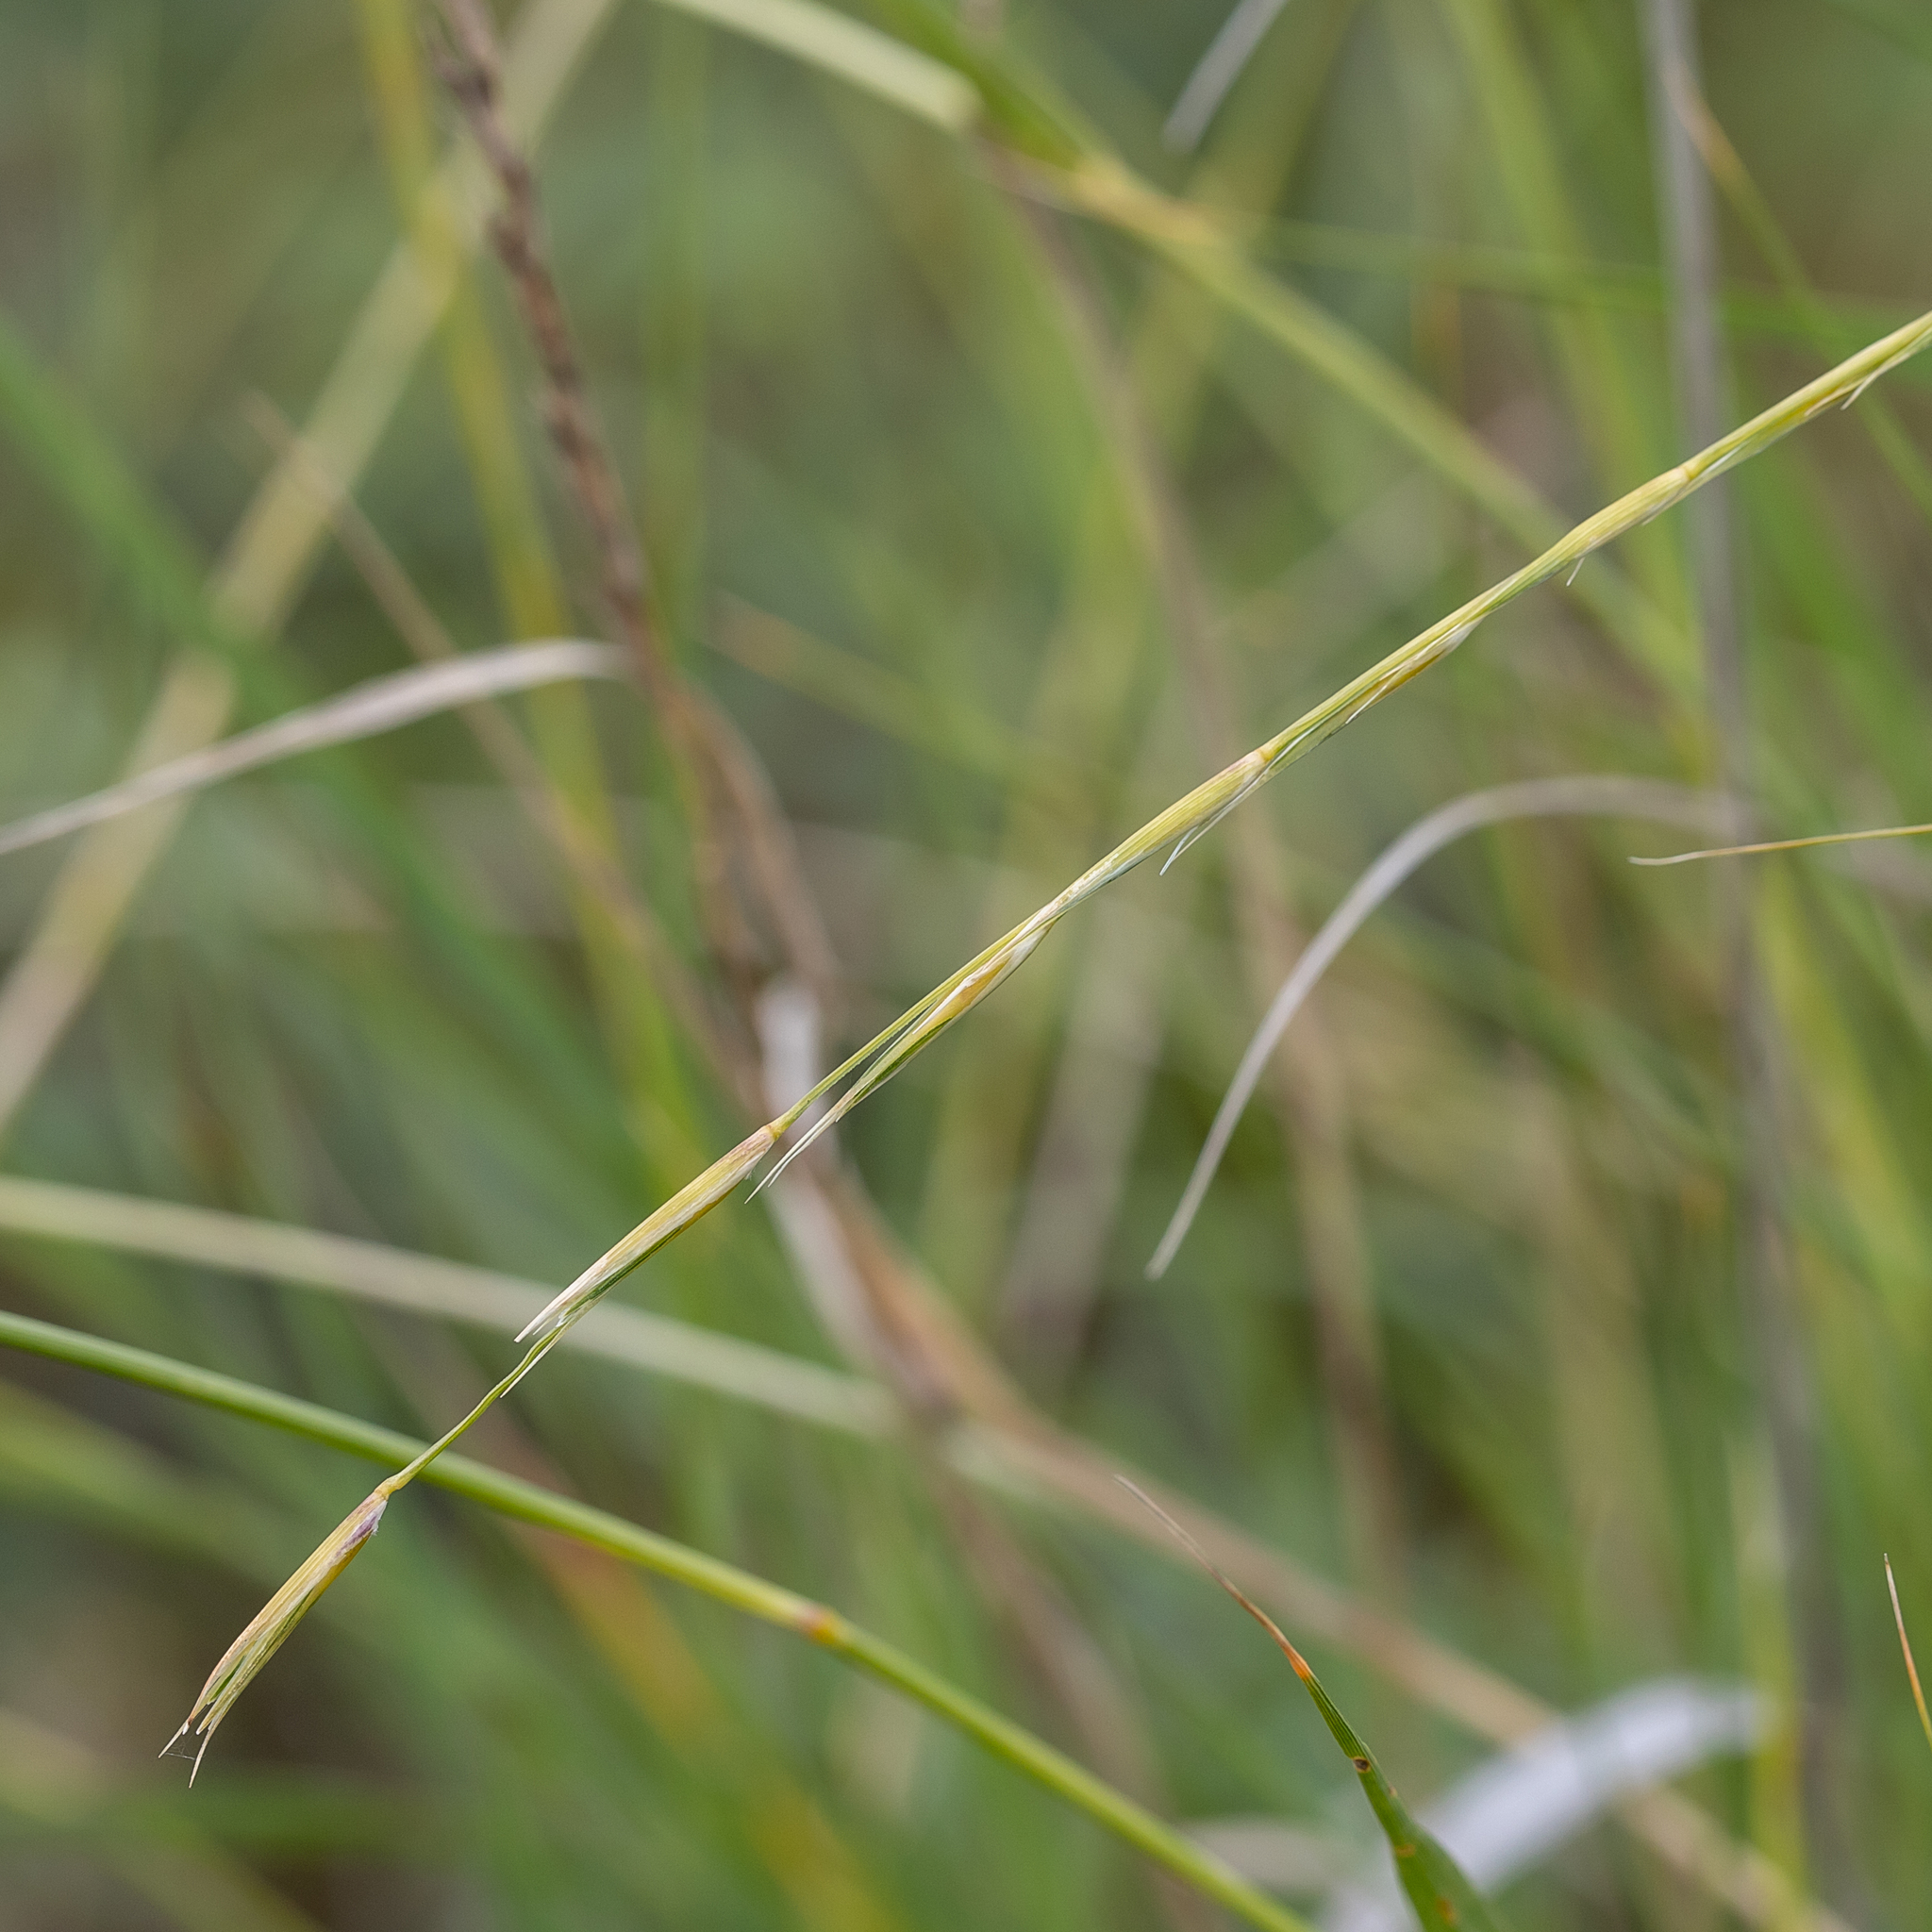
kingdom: Plantae
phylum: Tracheophyta
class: Liliopsida
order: Poales
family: Poaceae
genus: Astrebla
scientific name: Astrebla elymoides
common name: Hoop mitchell grass
